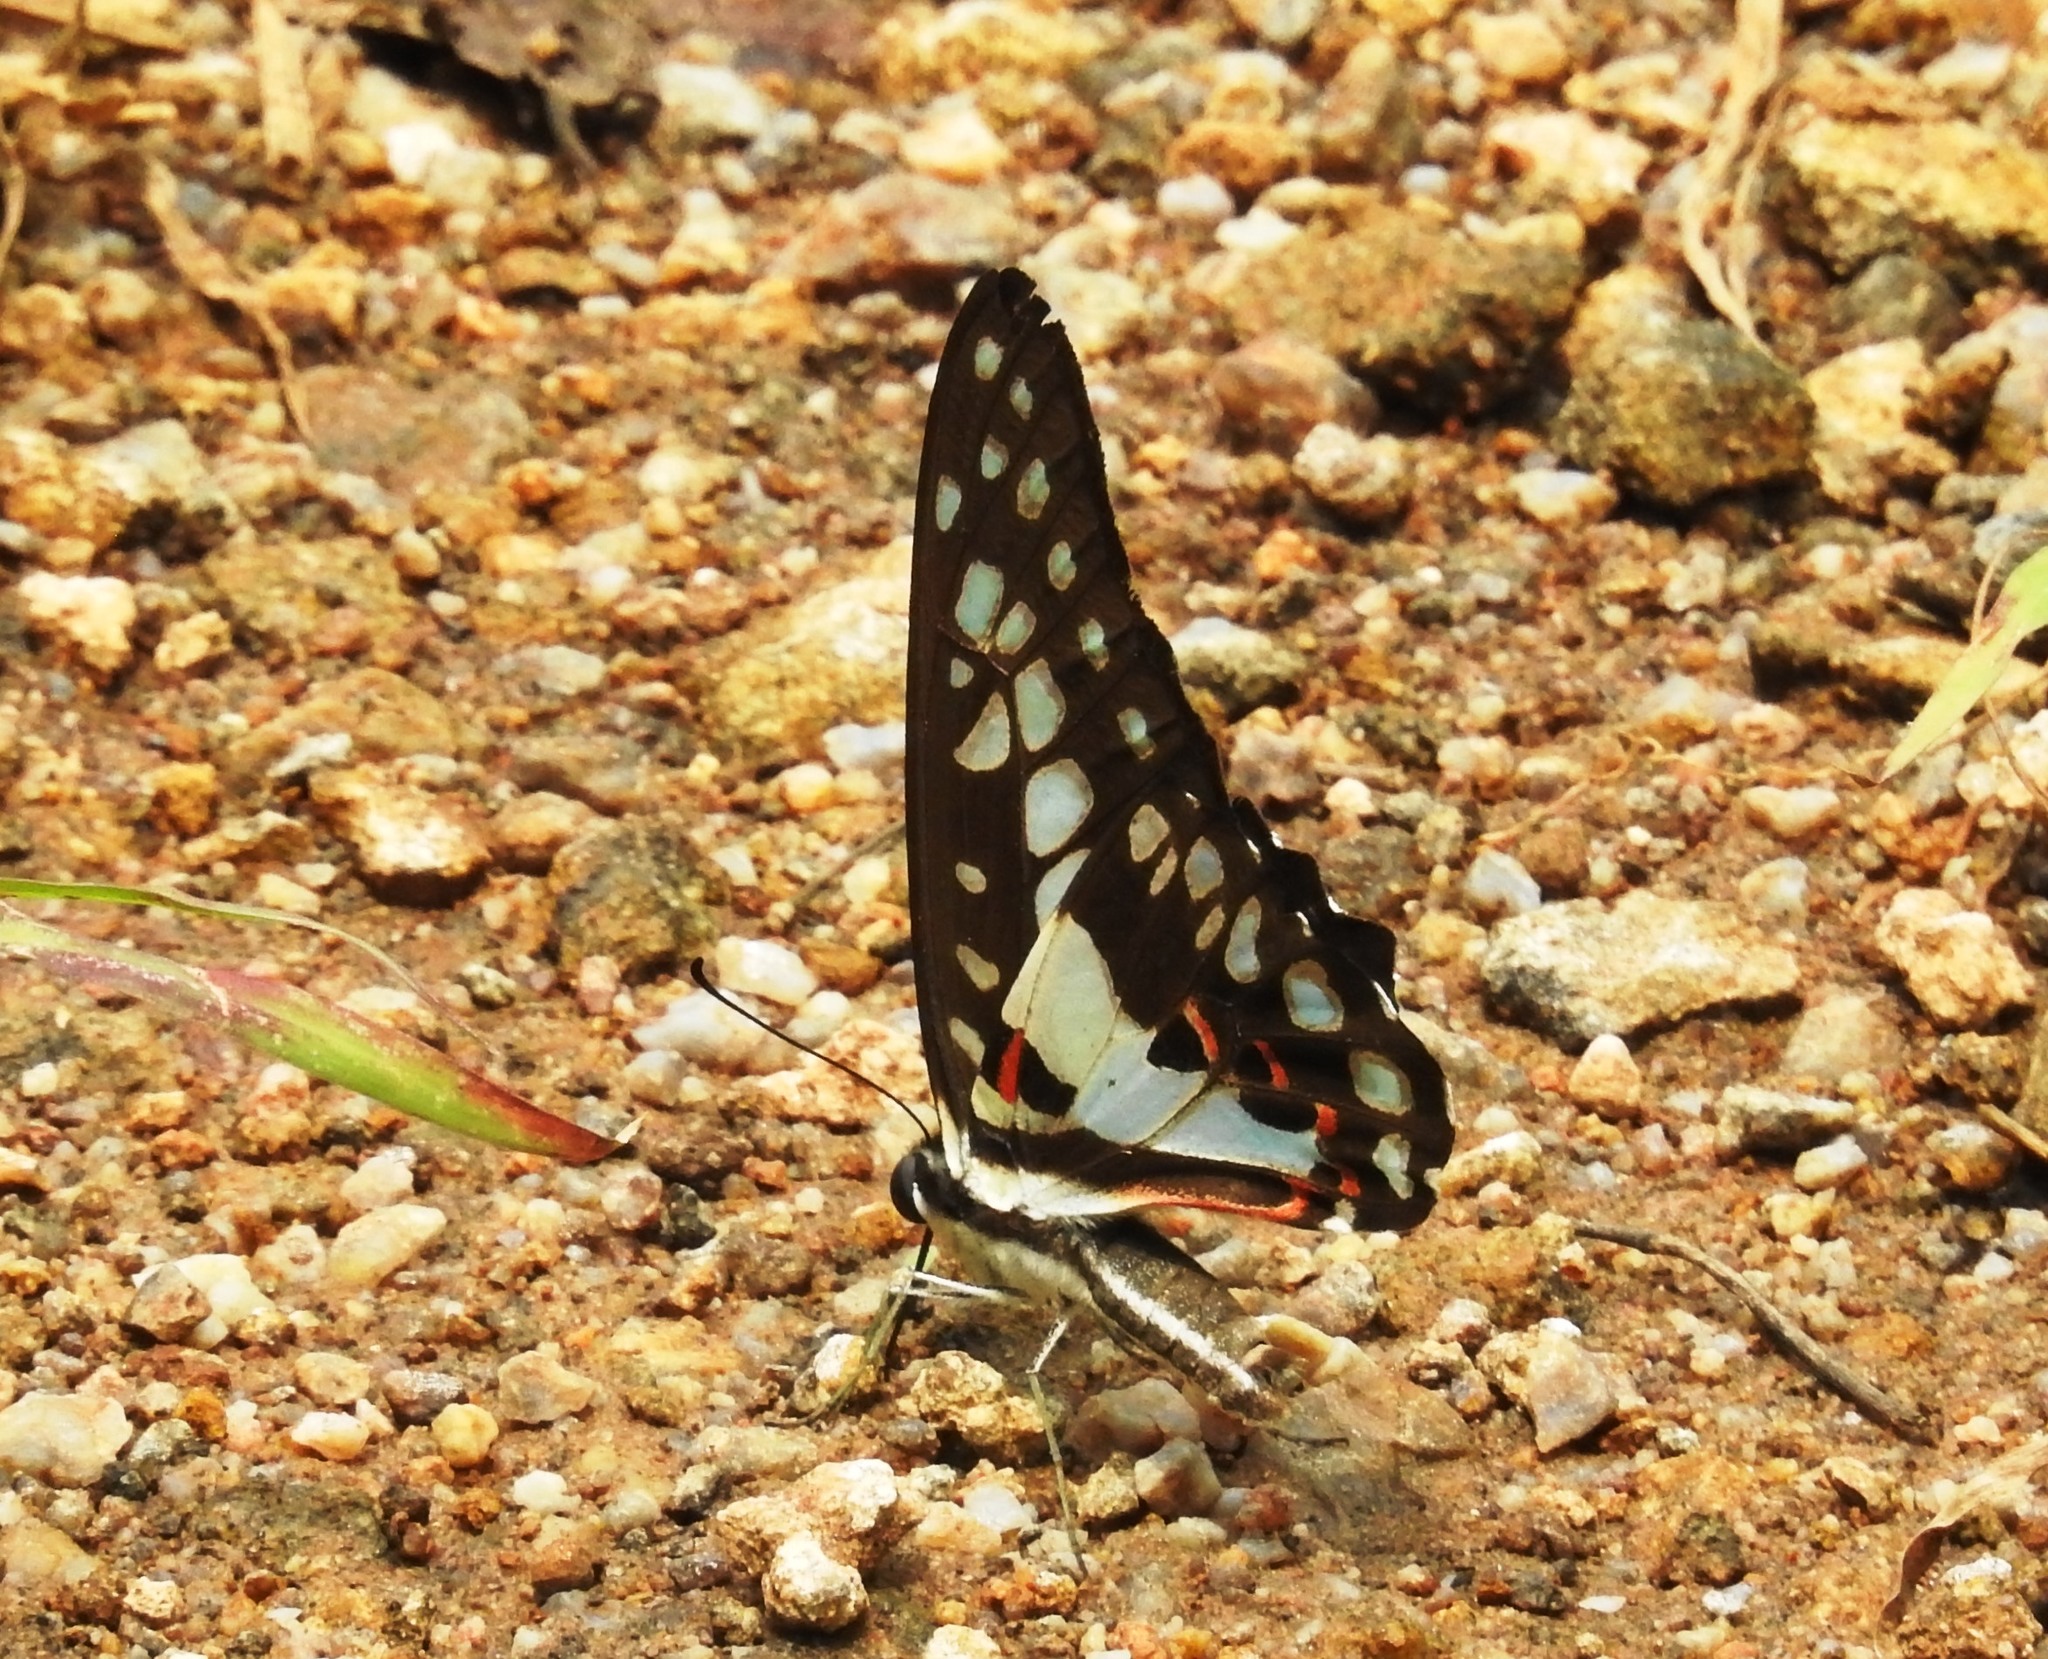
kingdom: Animalia
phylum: Arthropoda
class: Insecta
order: Lepidoptera
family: Papilionidae
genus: Graphium
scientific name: Graphium doson
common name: Common jay
